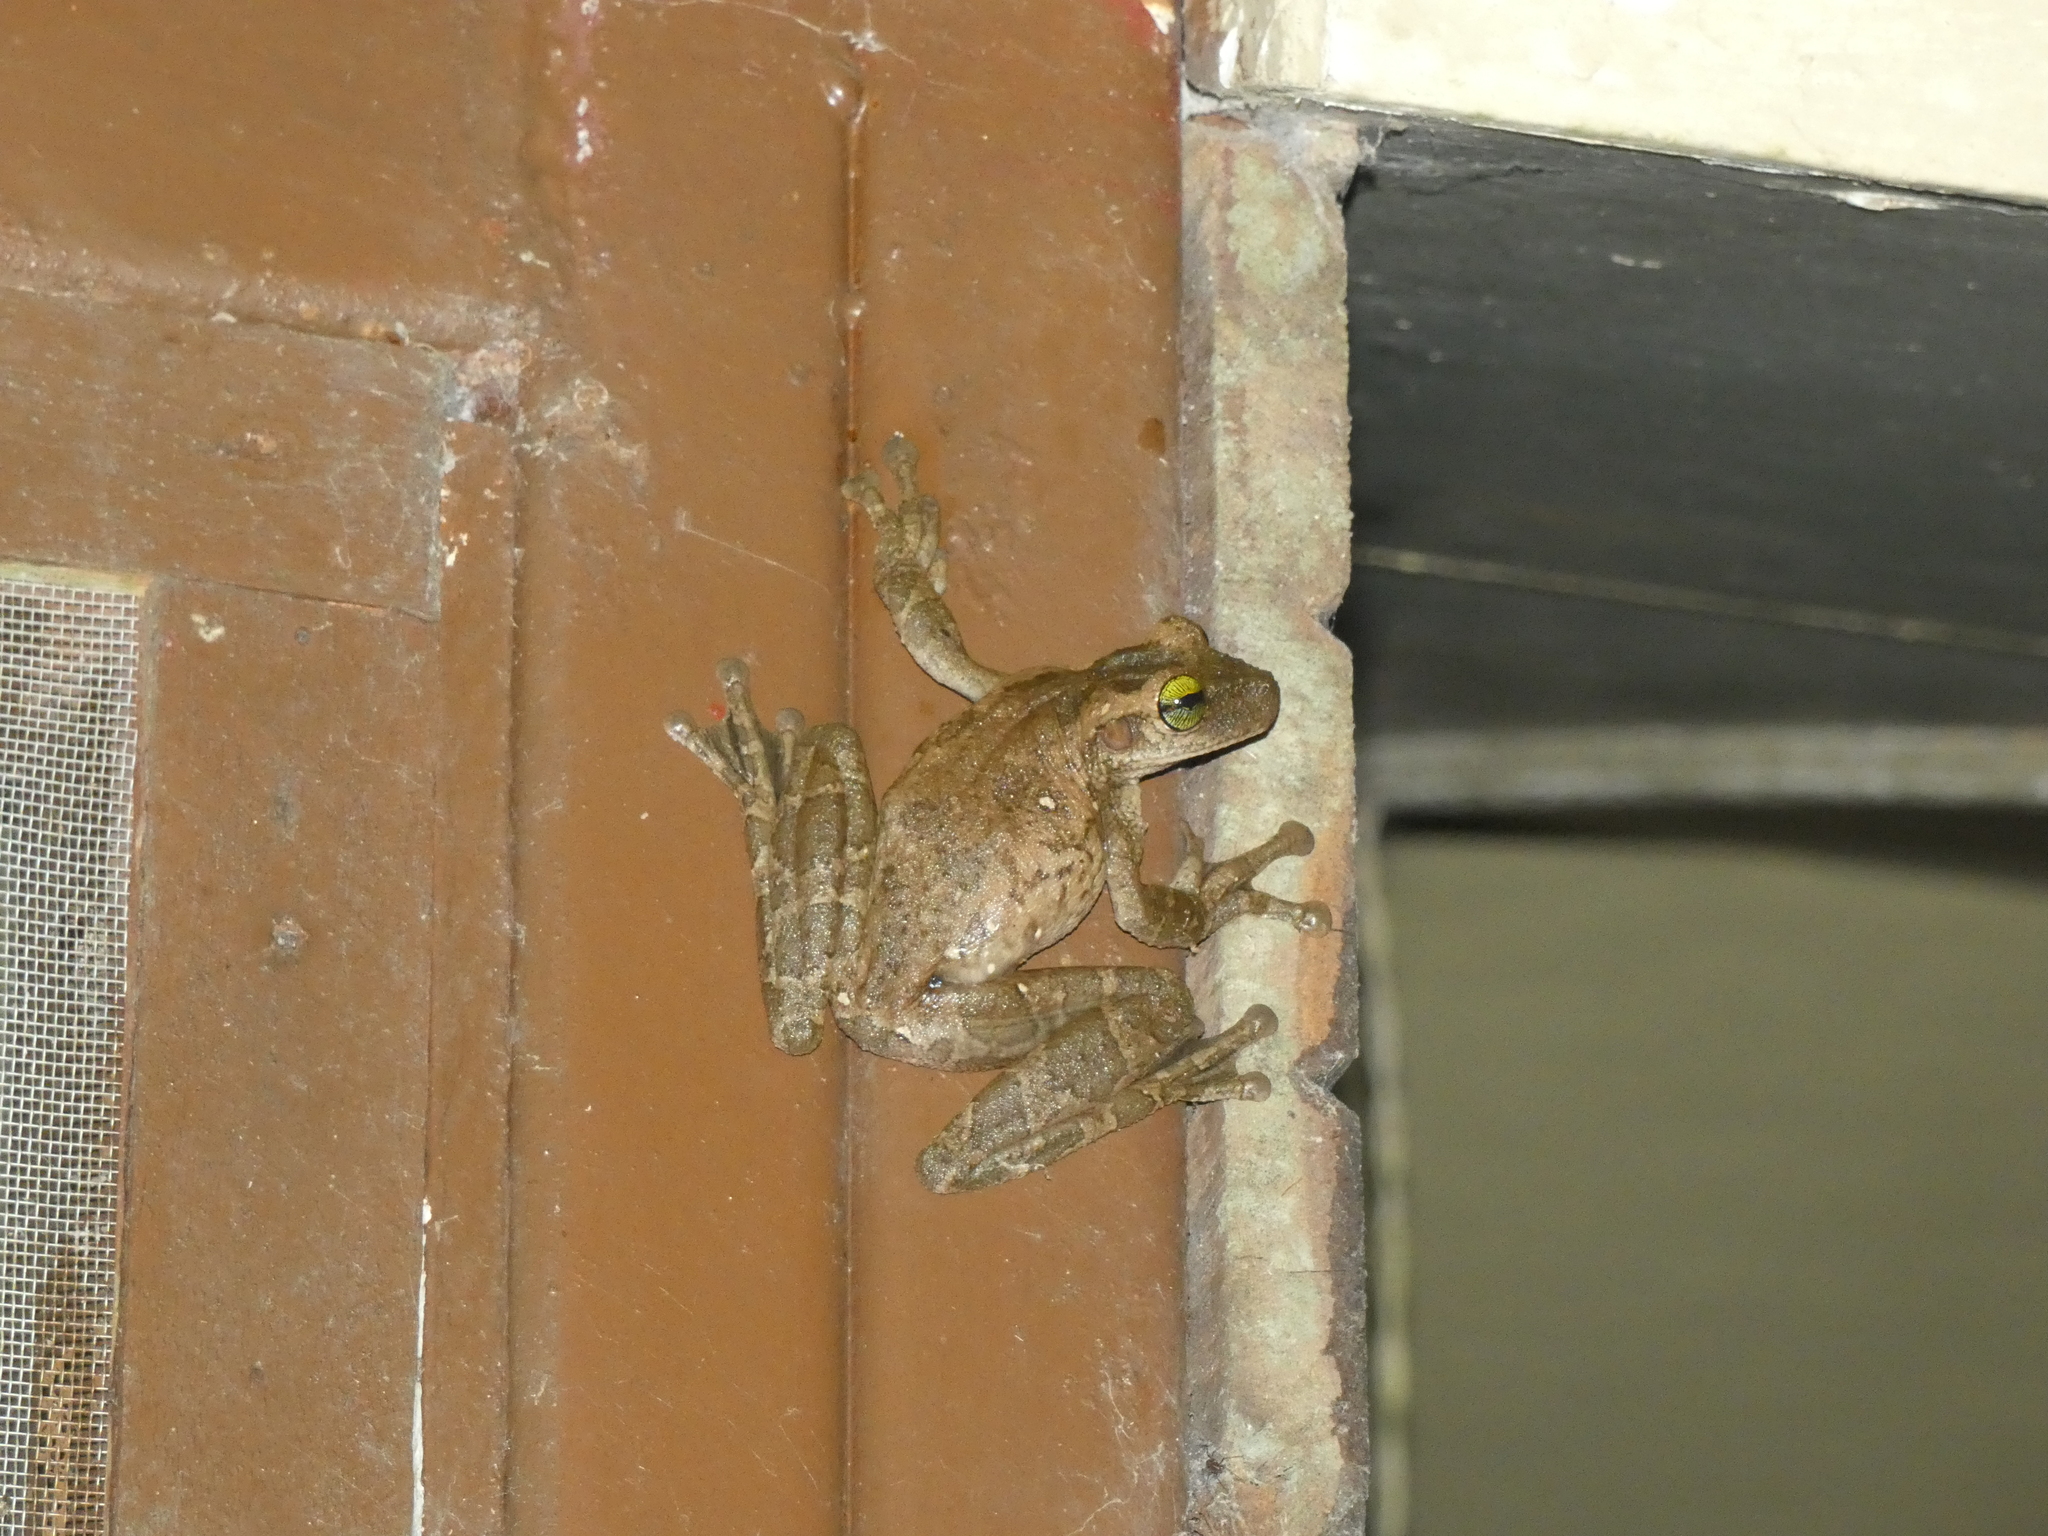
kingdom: Animalia
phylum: Chordata
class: Amphibia
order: Anura
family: Hylidae
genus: Osteocephalus
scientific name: Osteocephalus deridens
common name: Funny slender-legged treefrog
